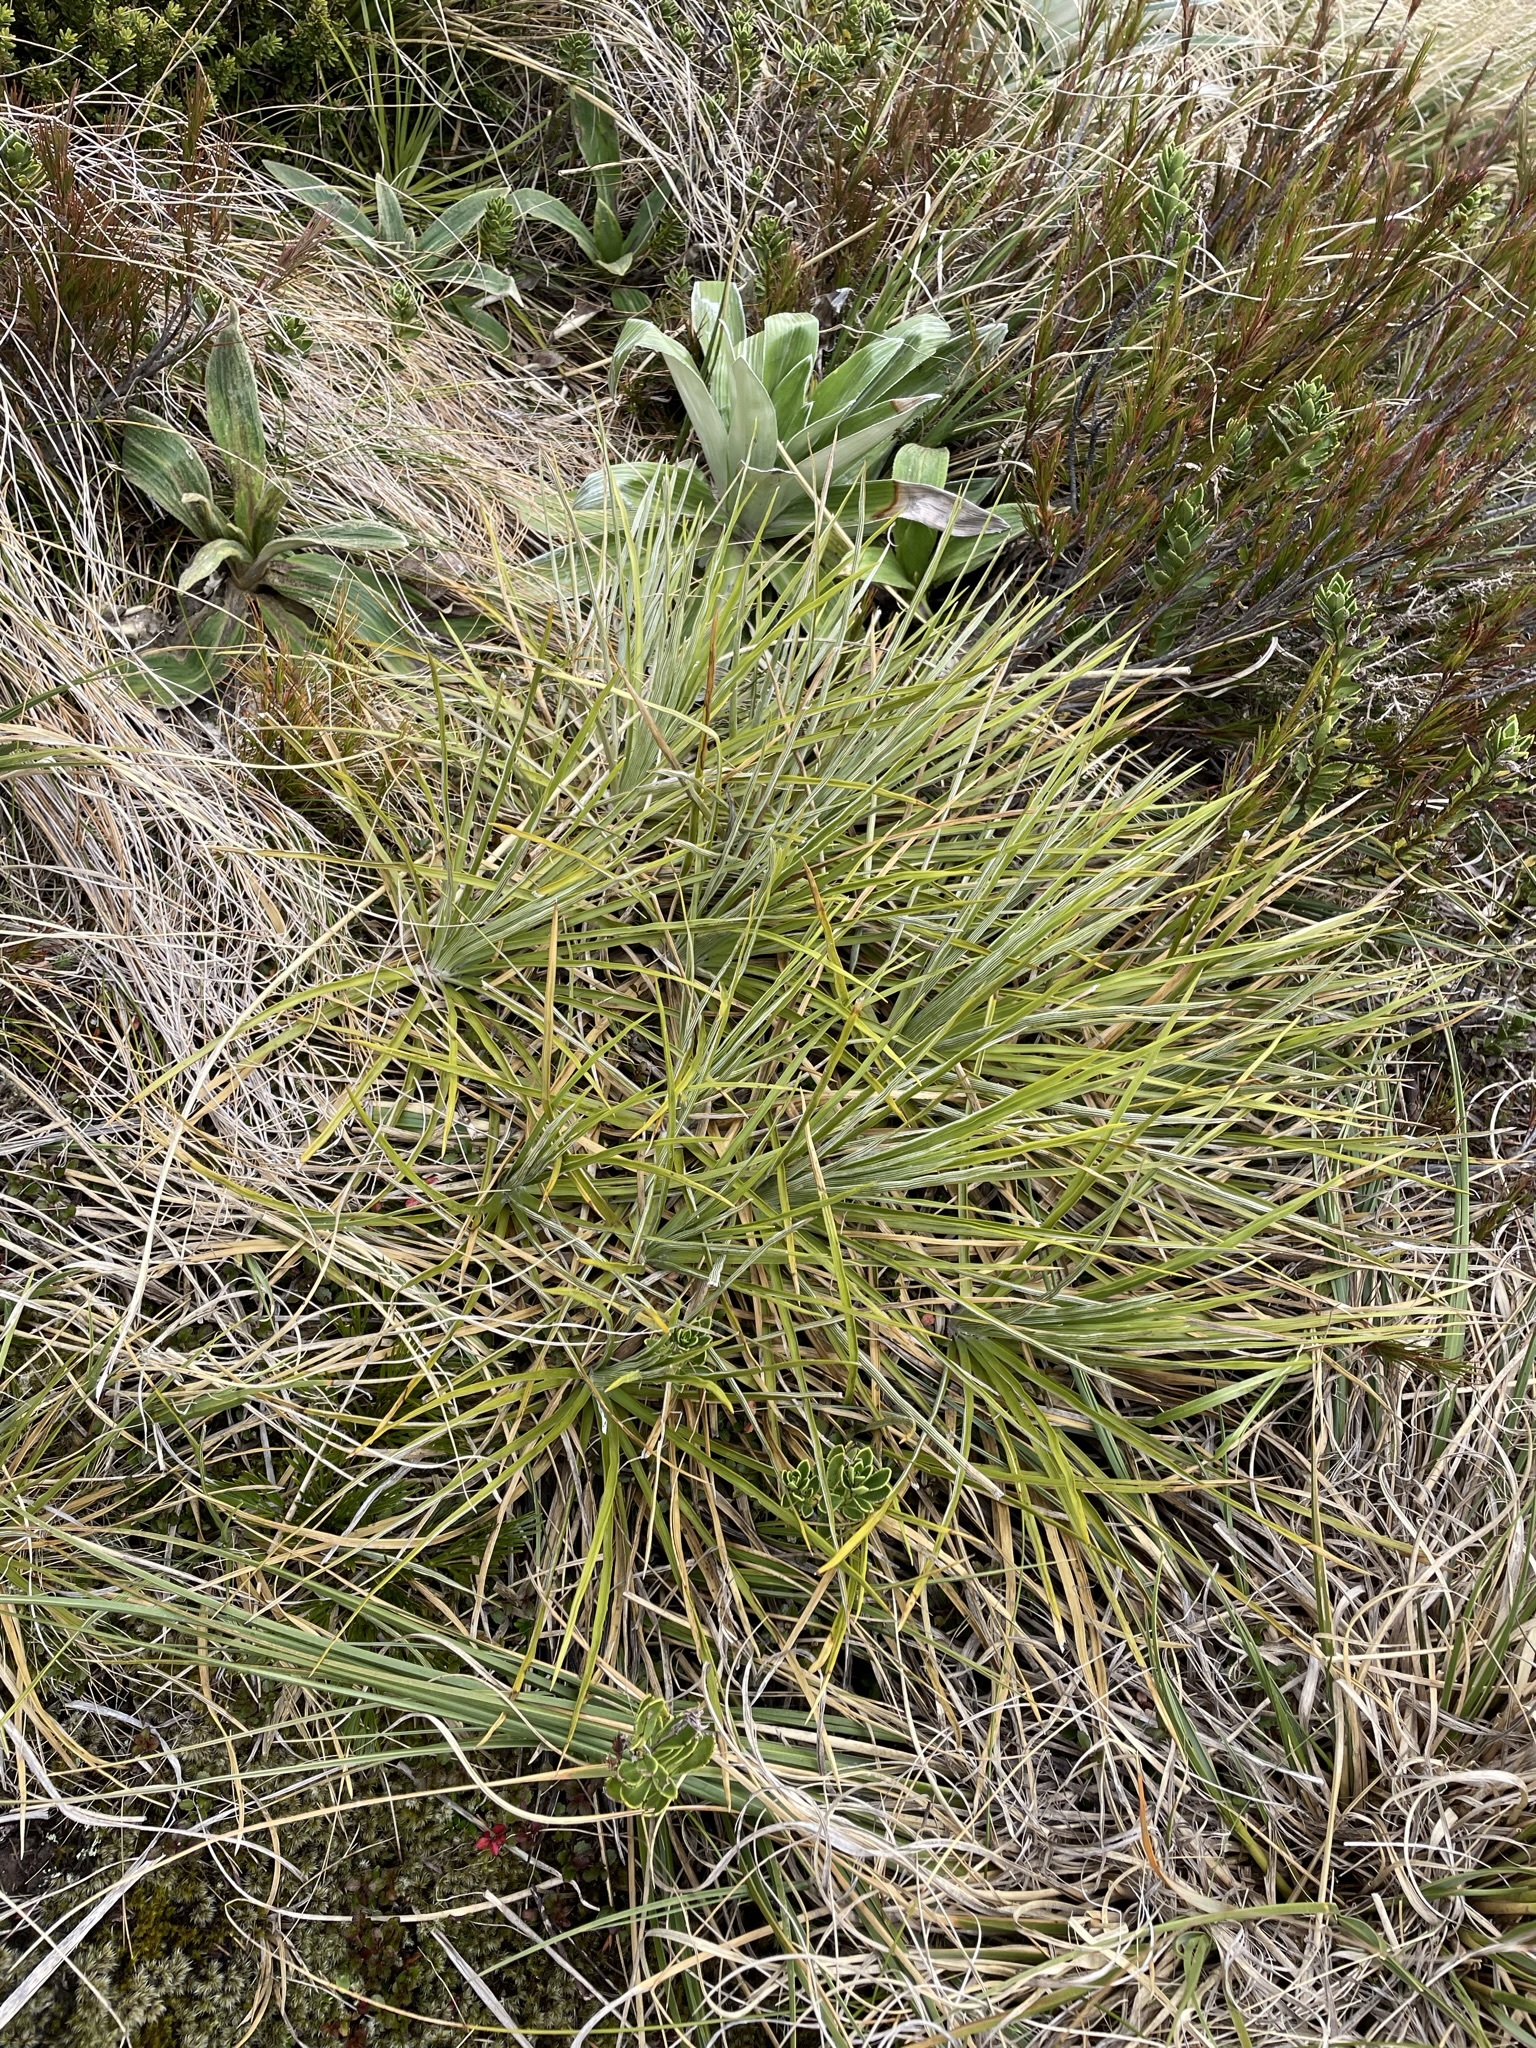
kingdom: Plantae
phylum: Tracheophyta
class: Magnoliopsida
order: Asterales
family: Asteraceae
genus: Celmisia
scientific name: Celmisia lyallii
